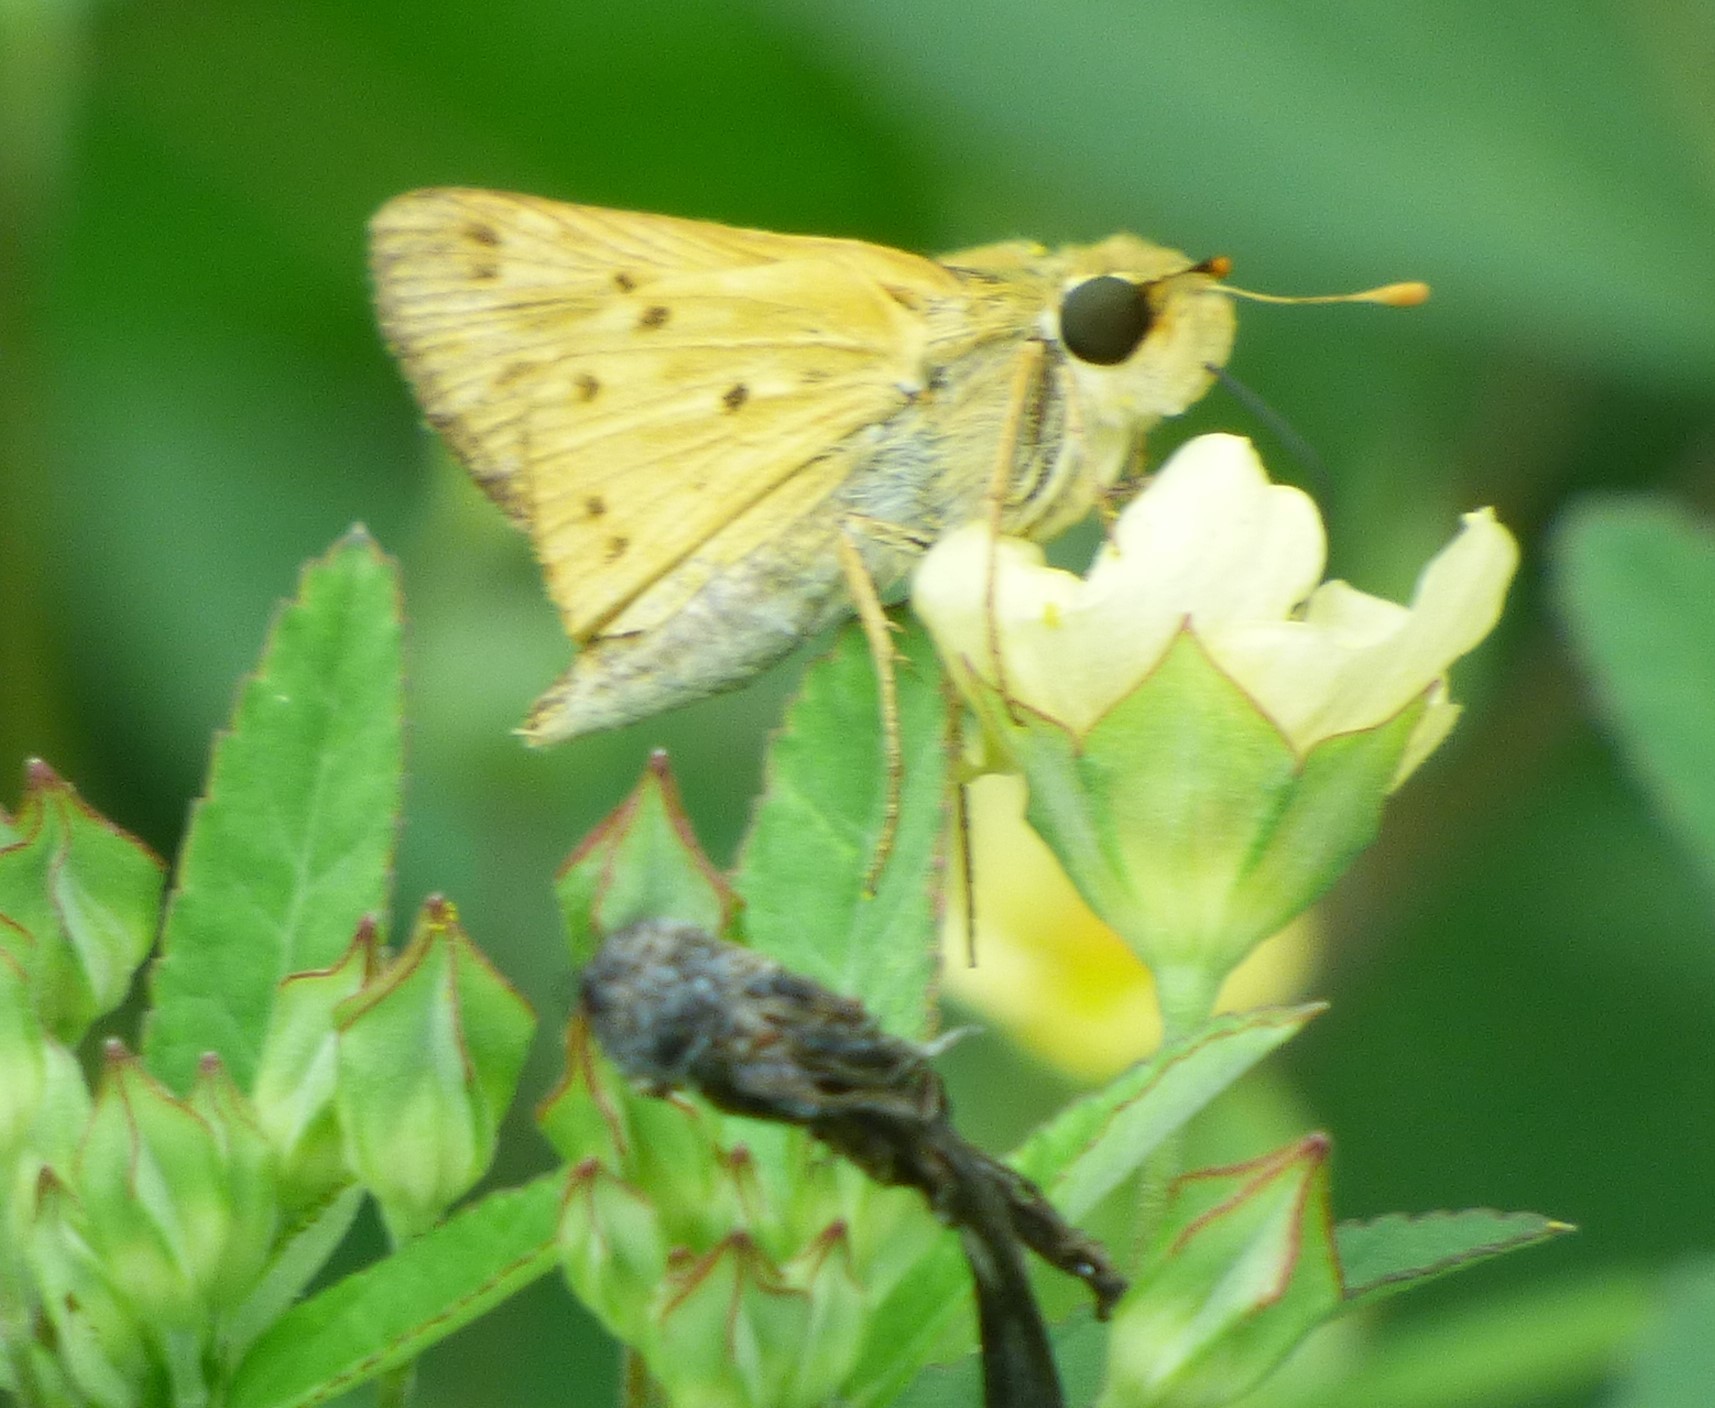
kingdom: Animalia
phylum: Arthropoda
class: Insecta
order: Lepidoptera
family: Hesperiidae
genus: Hylephila
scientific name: Hylephila phyleus
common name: Fiery skipper
